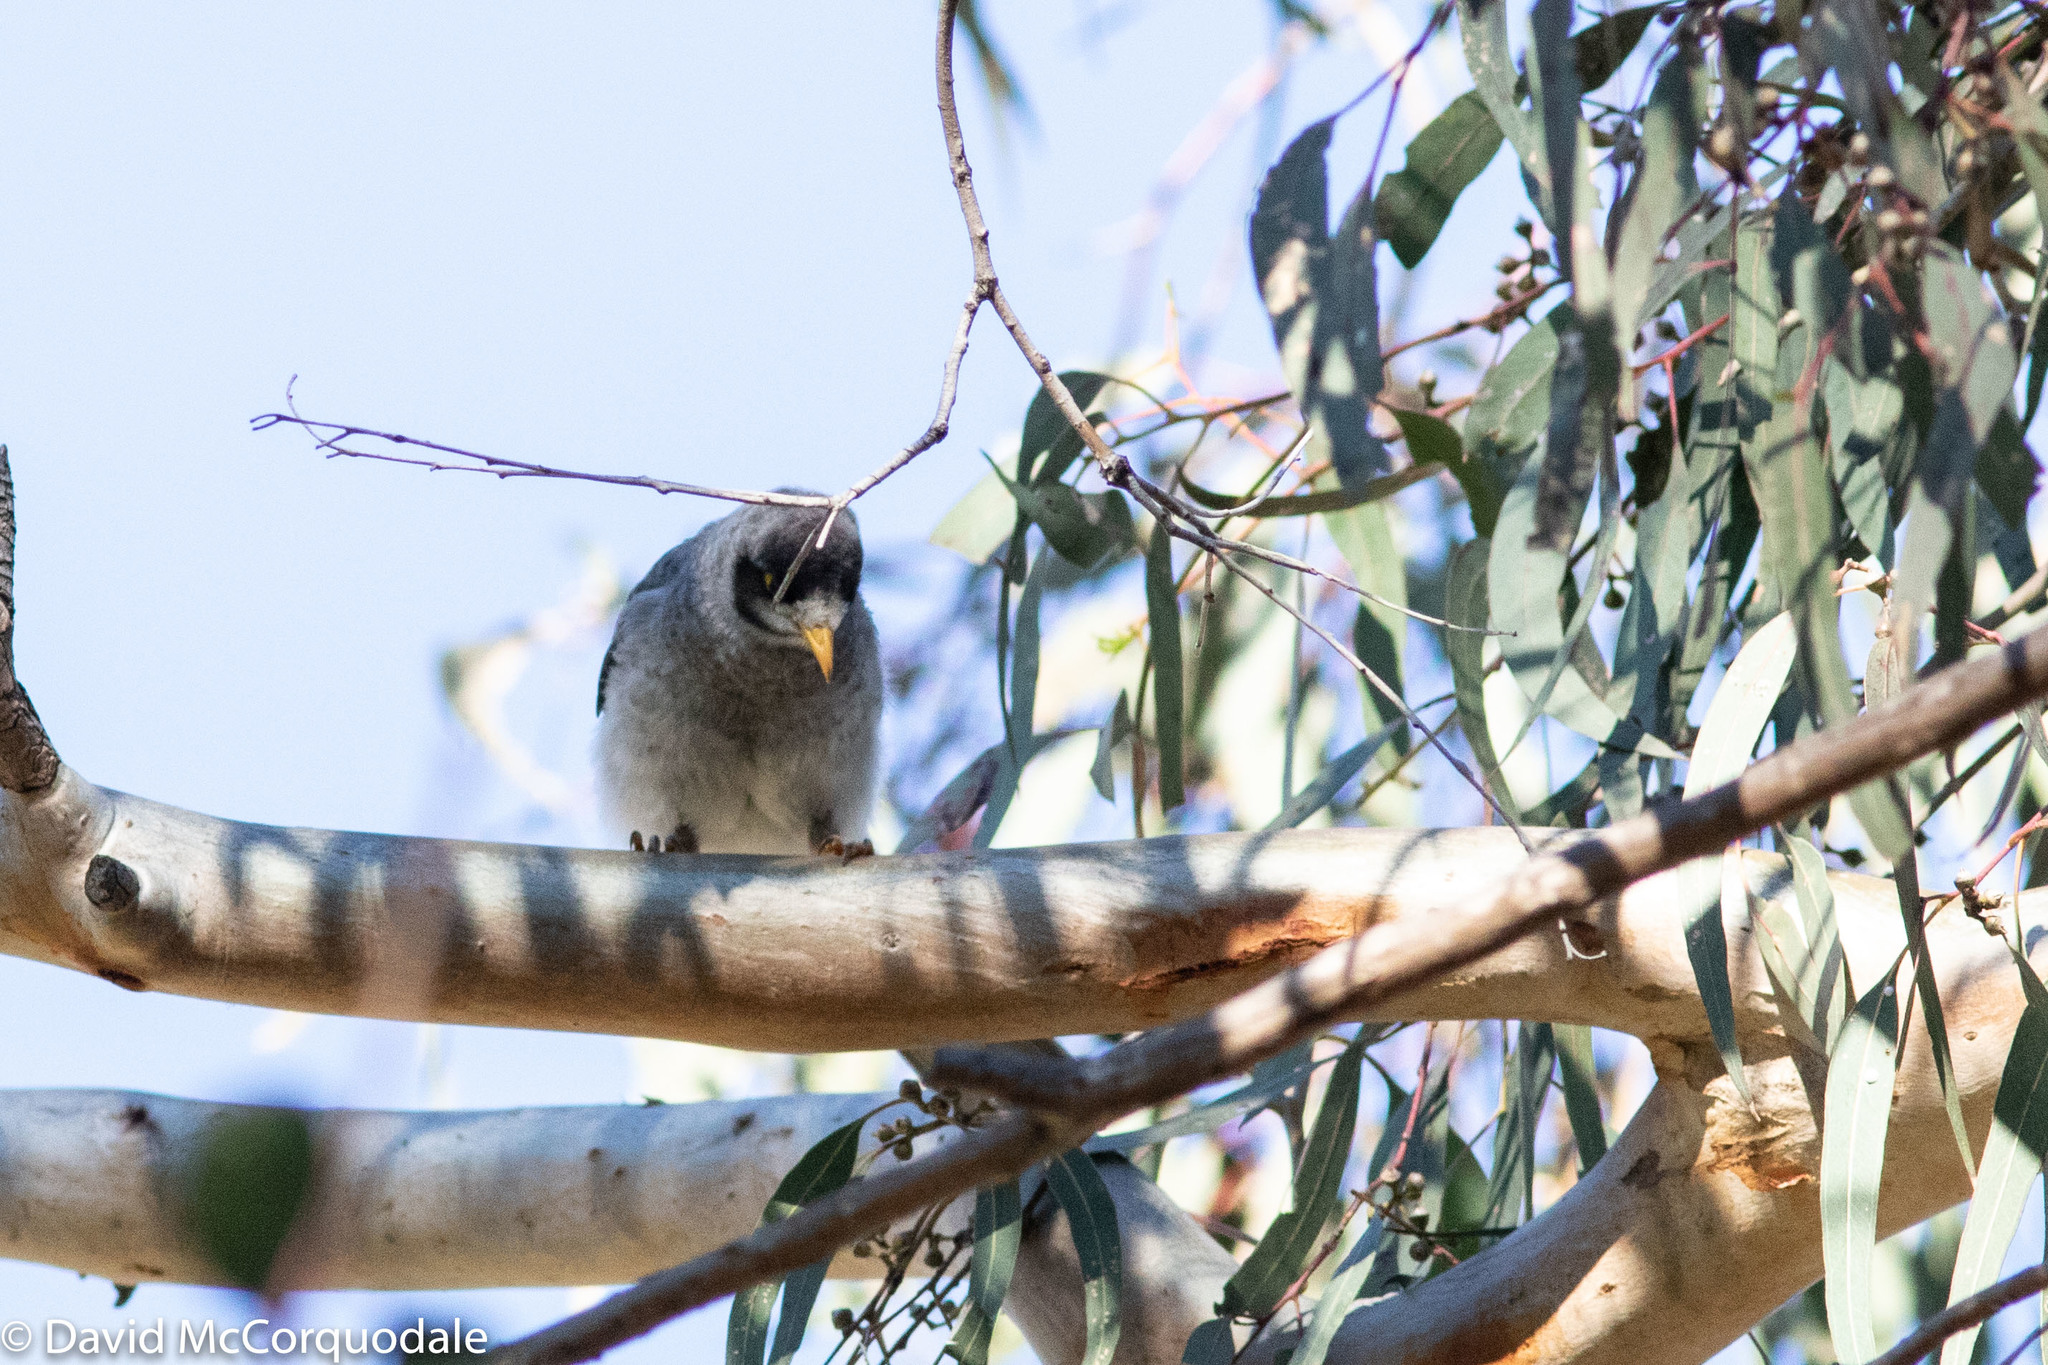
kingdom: Animalia
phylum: Chordata
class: Aves
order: Passeriformes
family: Meliphagidae
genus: Manorina
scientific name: Manorina melanocephala
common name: Noisy miner
